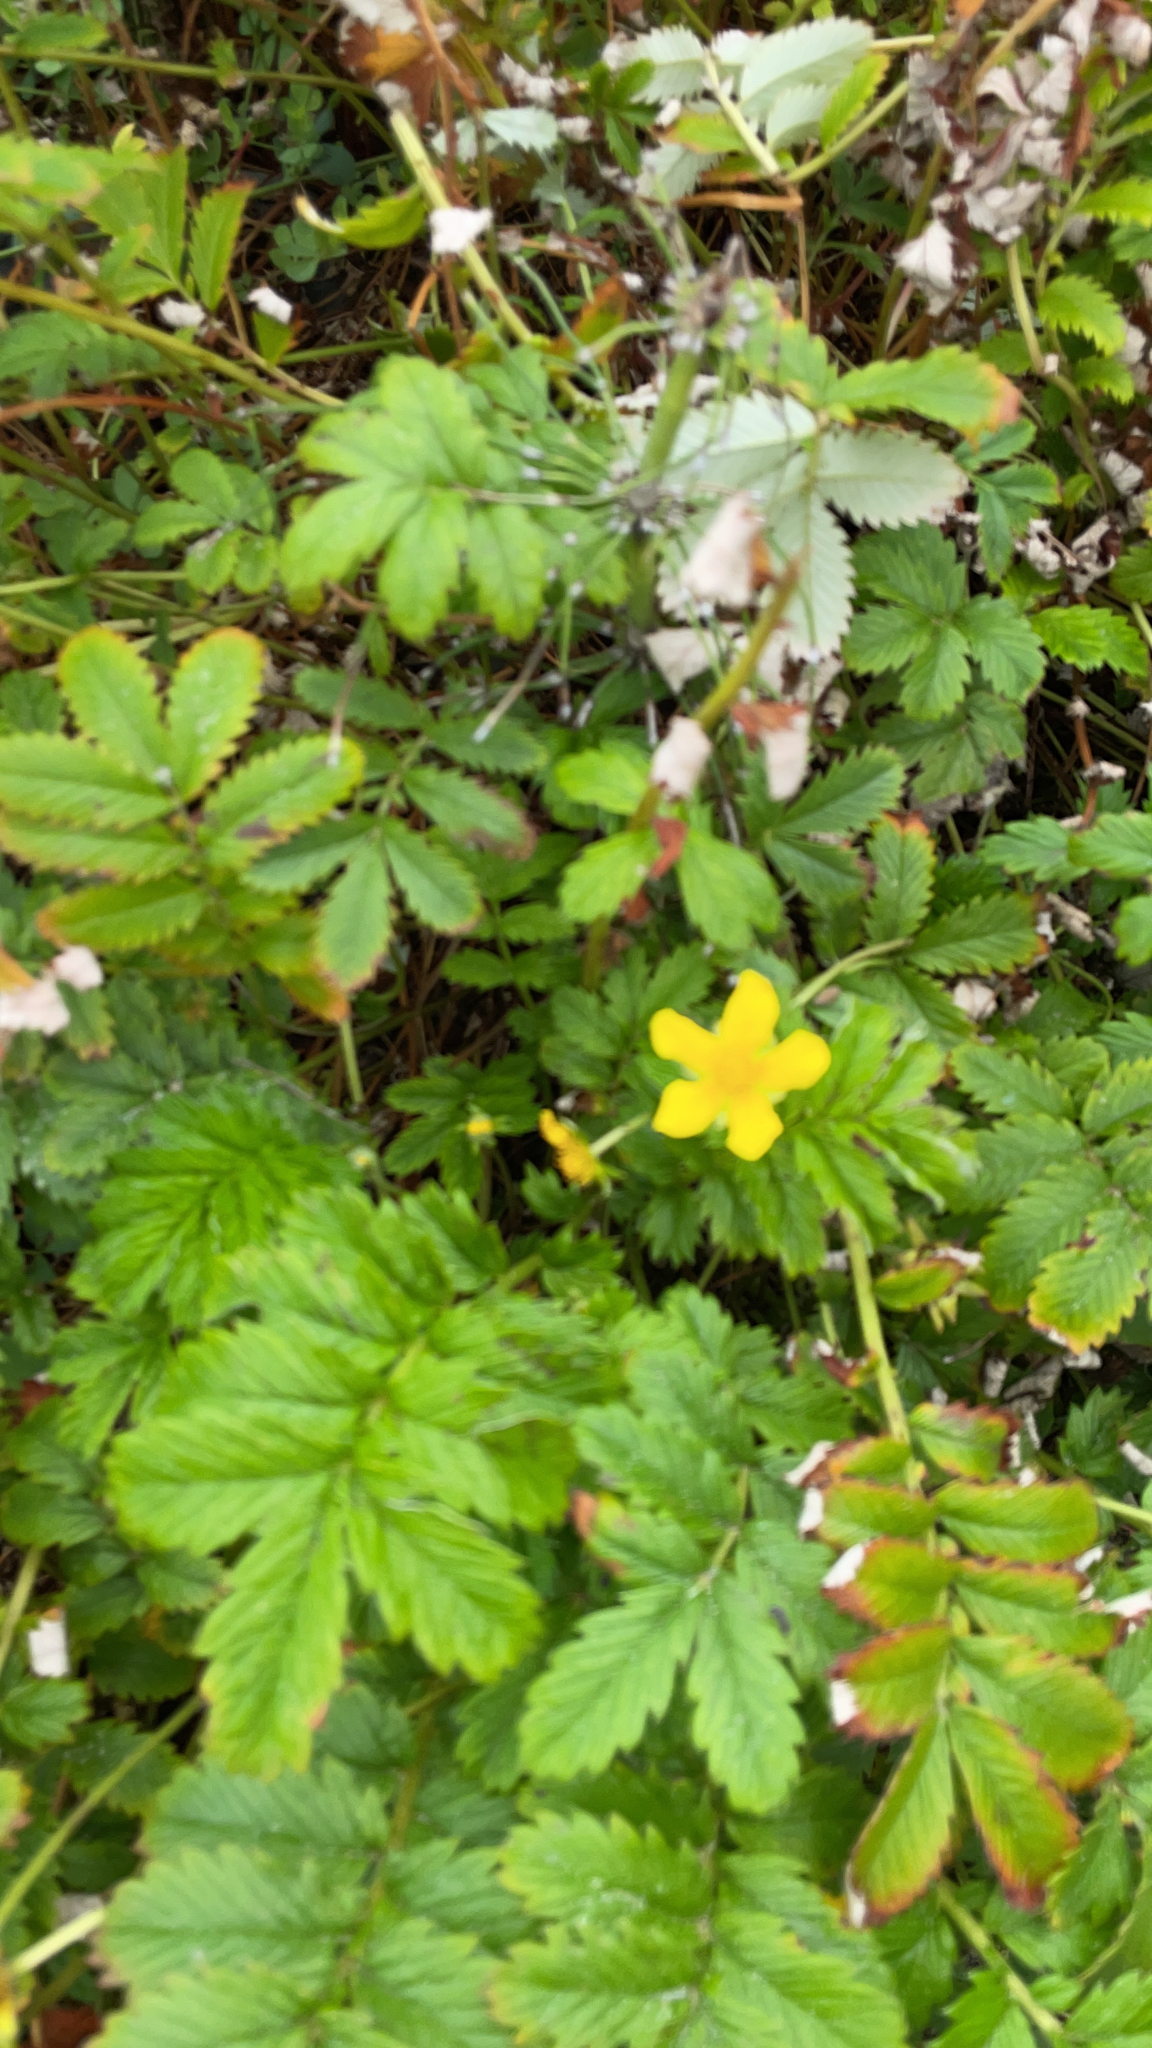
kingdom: Plantae
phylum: Tracheophyta
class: Magnoliopsida
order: Rosales
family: Rosaceae
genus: Argentina
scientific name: Argentina anserina
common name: Common silverweed
